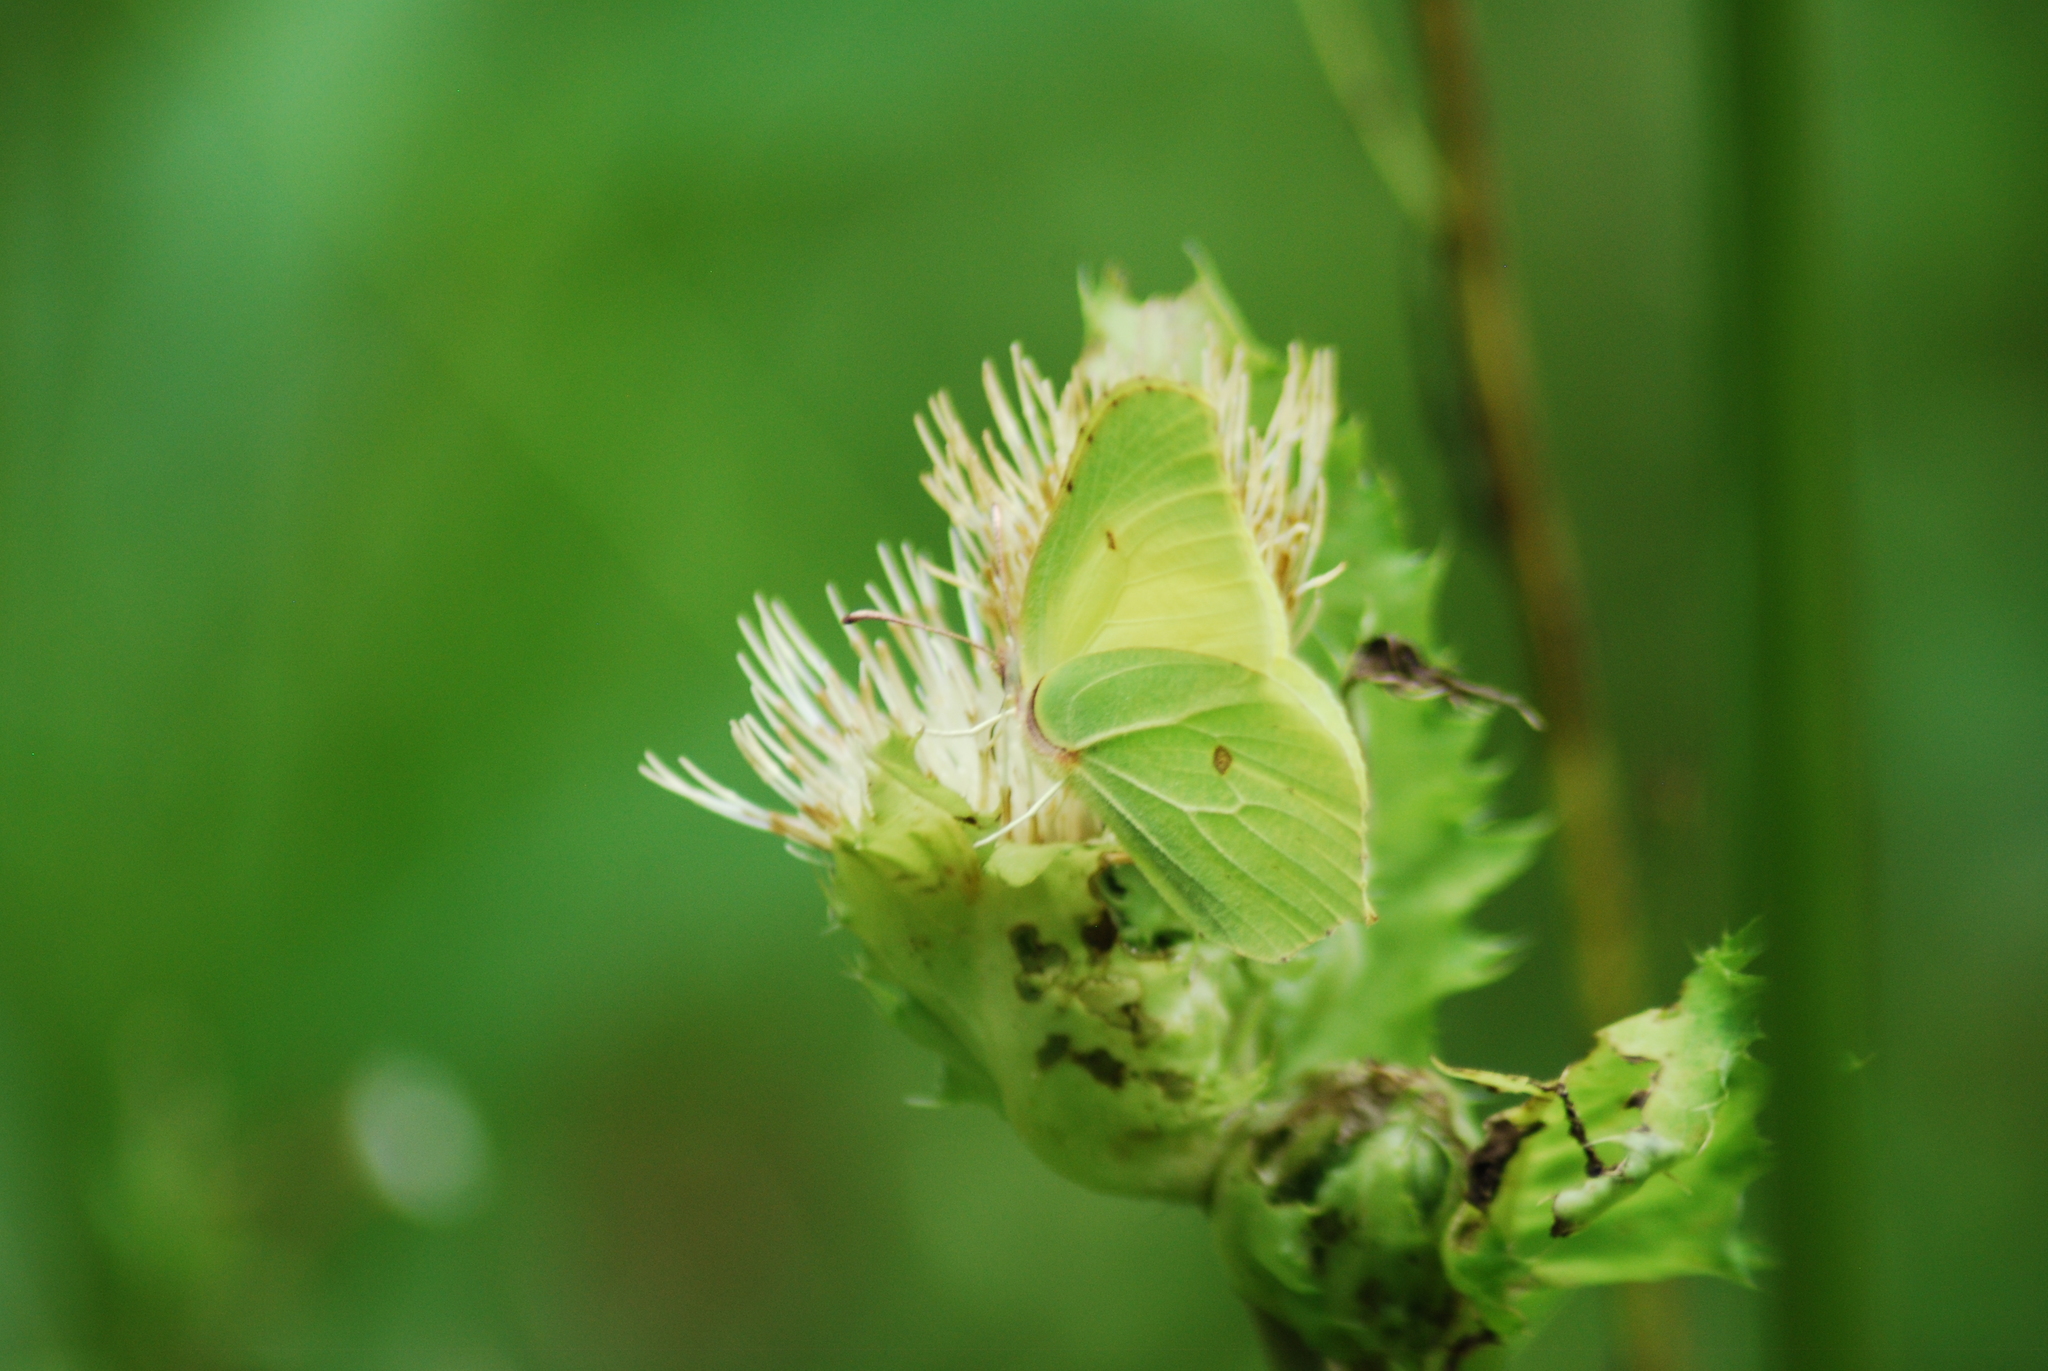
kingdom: Animalia
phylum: Arthropoda
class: Insecta
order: Lepidoptera
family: Pieridae
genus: Gonepteryx
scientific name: Gonepteryx rhamni
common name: Brimstone
